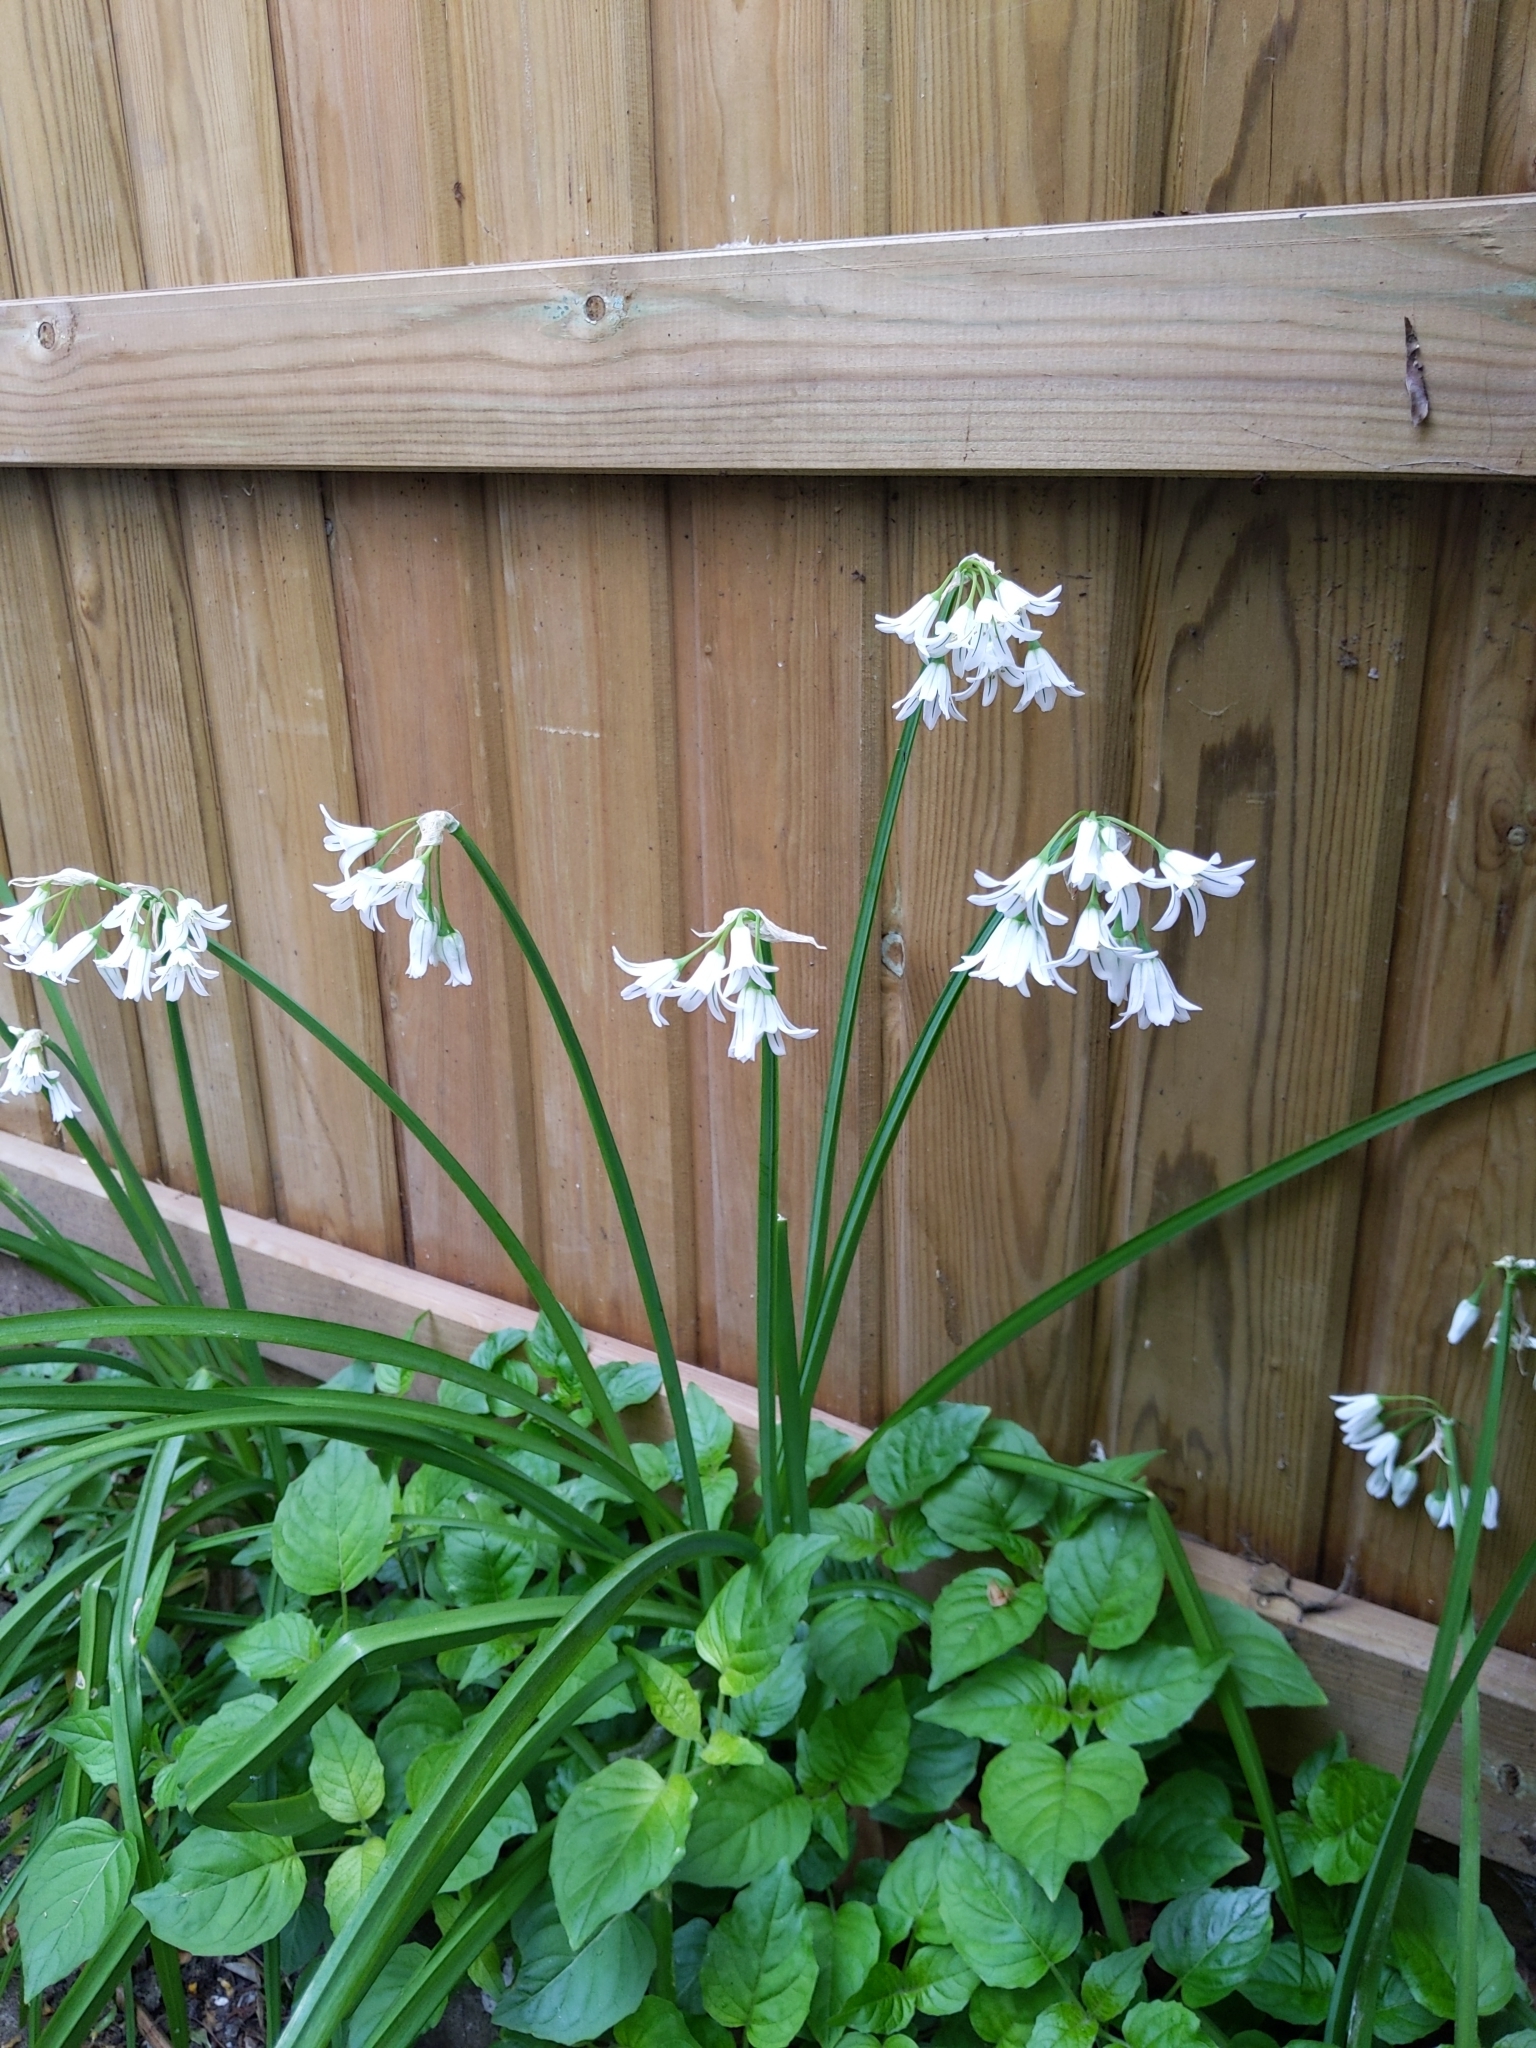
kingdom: Plantae
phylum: Tracheophyta
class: Liliopsida
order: Asparagales
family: Amaryllidaceae
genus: Allium
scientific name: Allium triquetrum
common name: Three-cornered garlic
